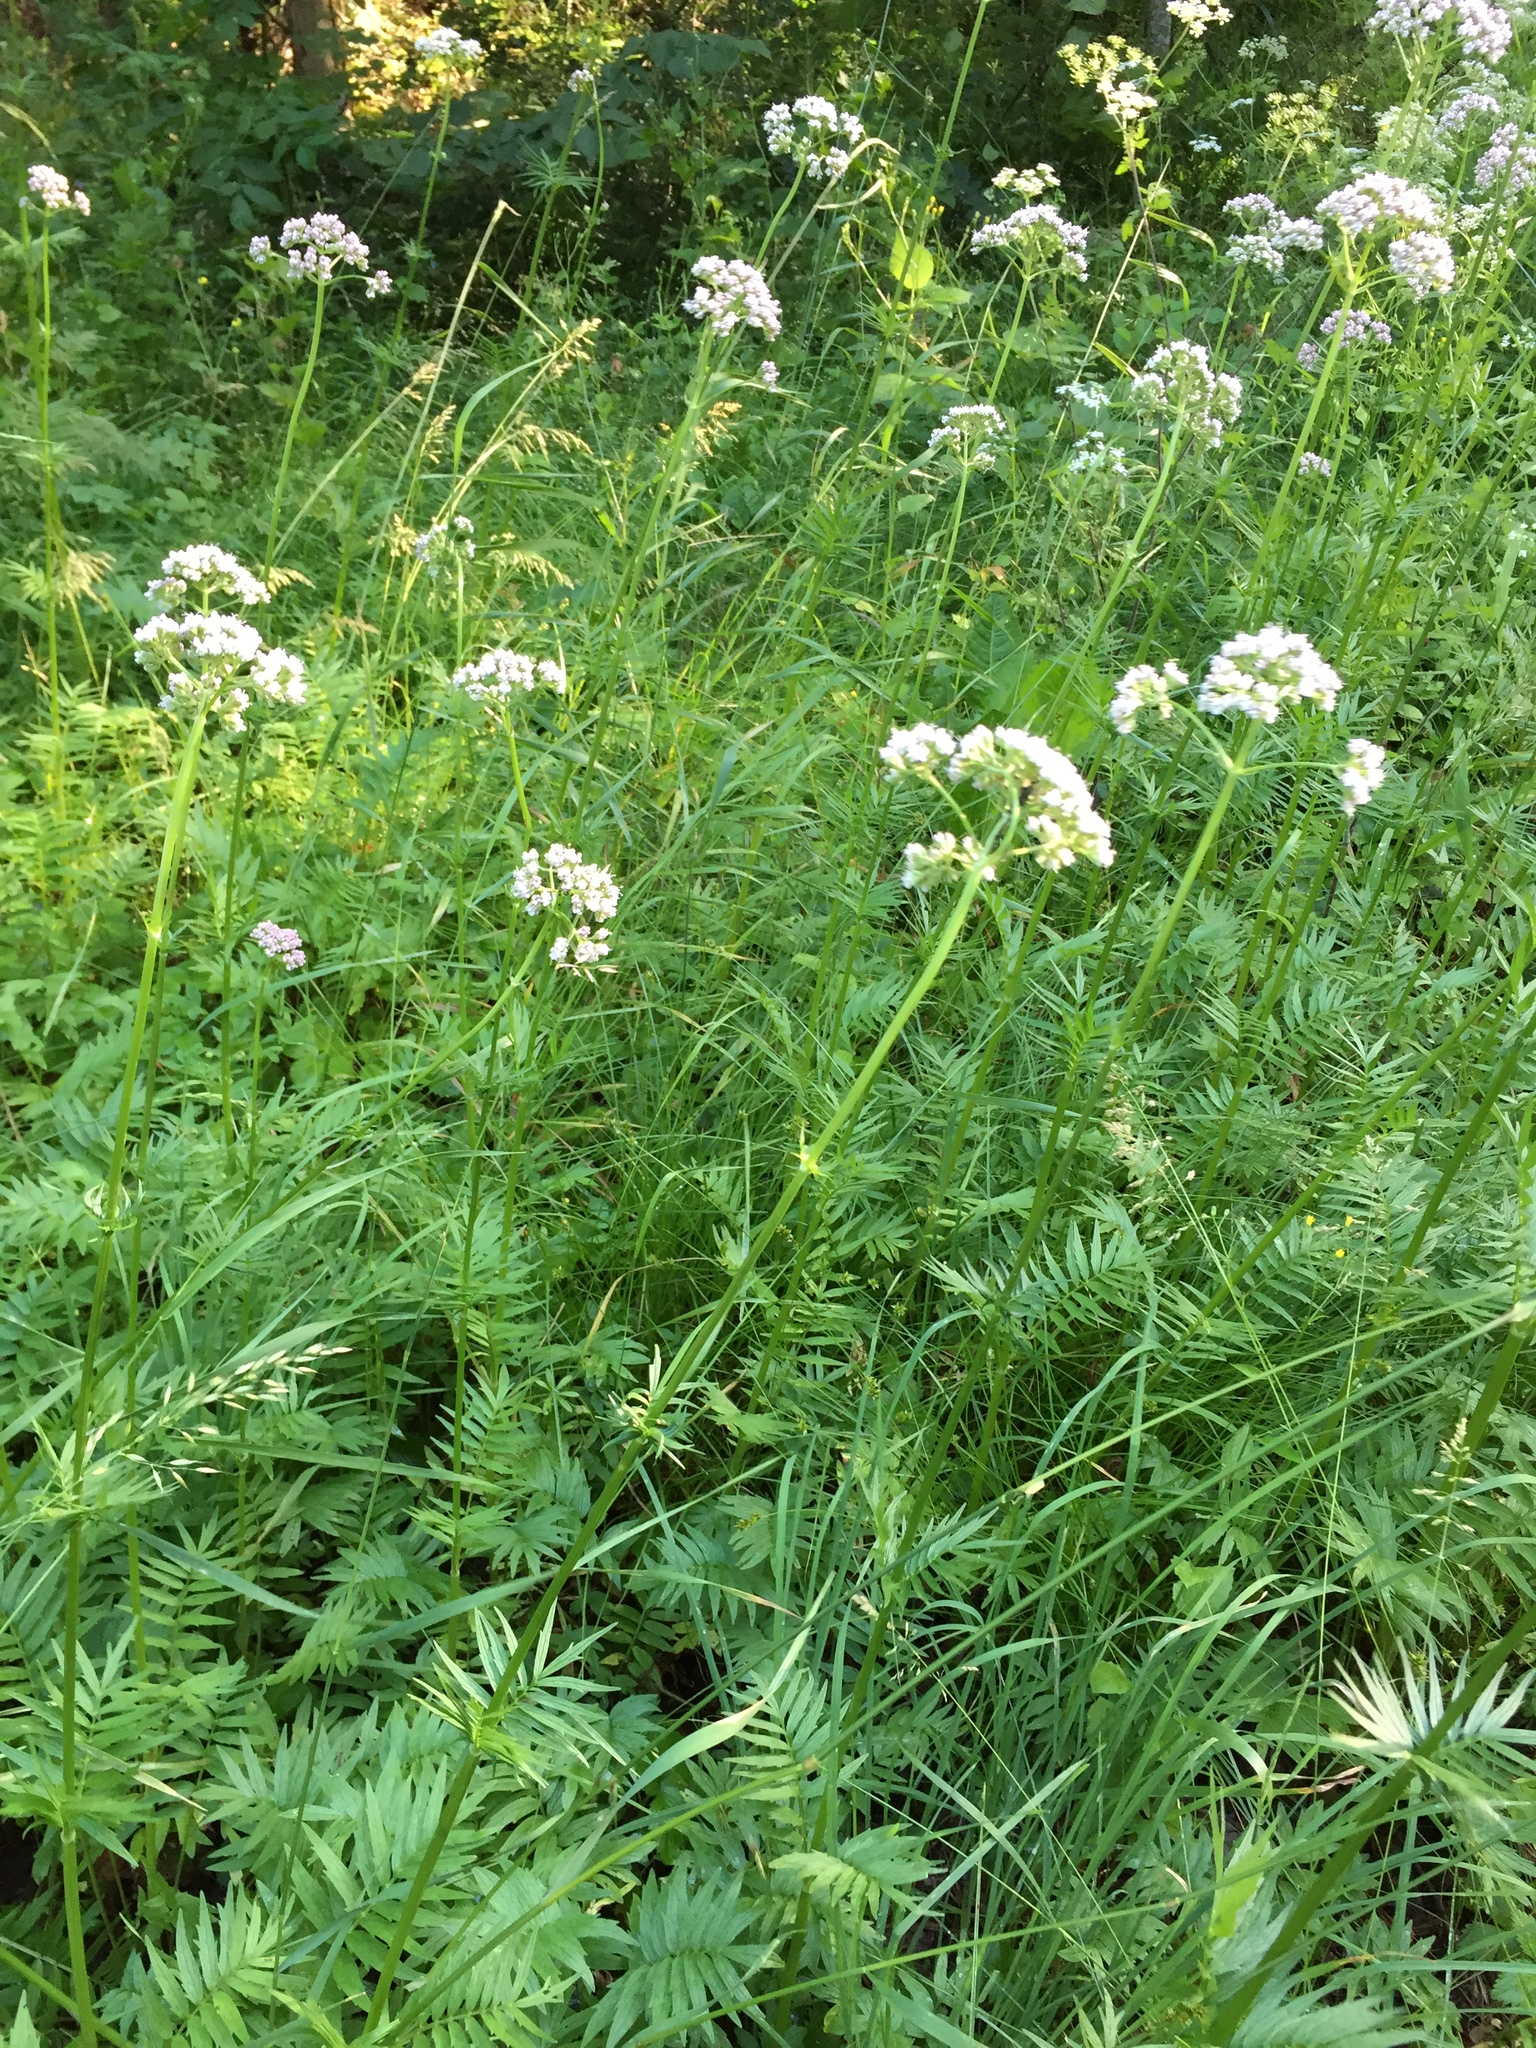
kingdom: Plantae
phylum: Tracheophyta
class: Magnoliopsida
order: Dipsacales
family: Caprifoliaceae
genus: Valeriana
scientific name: Valeriana officinalis
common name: Common valerian
